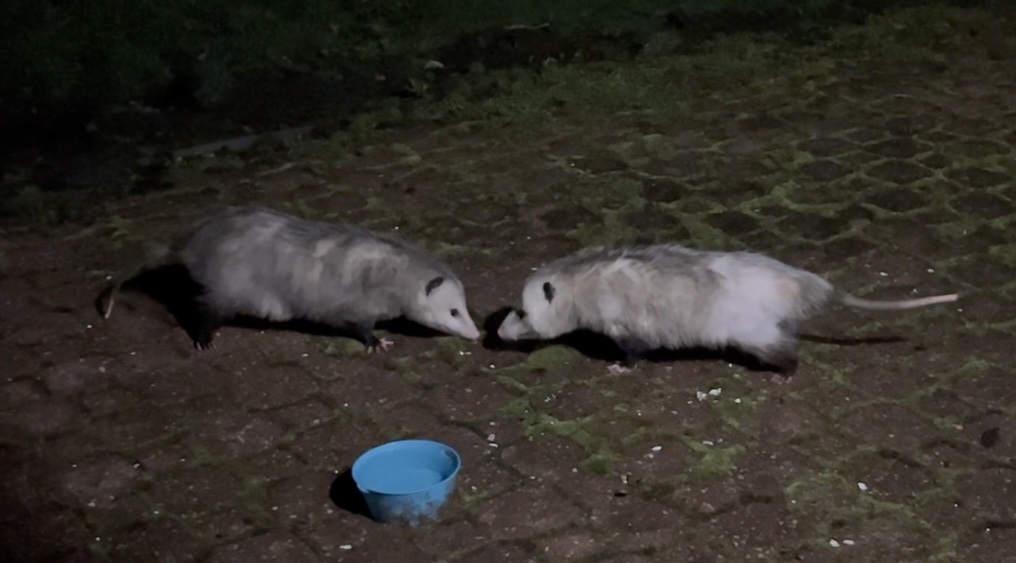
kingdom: Animalia
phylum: Chordata
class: Mammalia
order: Didelphimorphia
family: Didelphidae
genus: Didelphis
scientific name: Didelphis virginiana
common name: Virginia opossum
